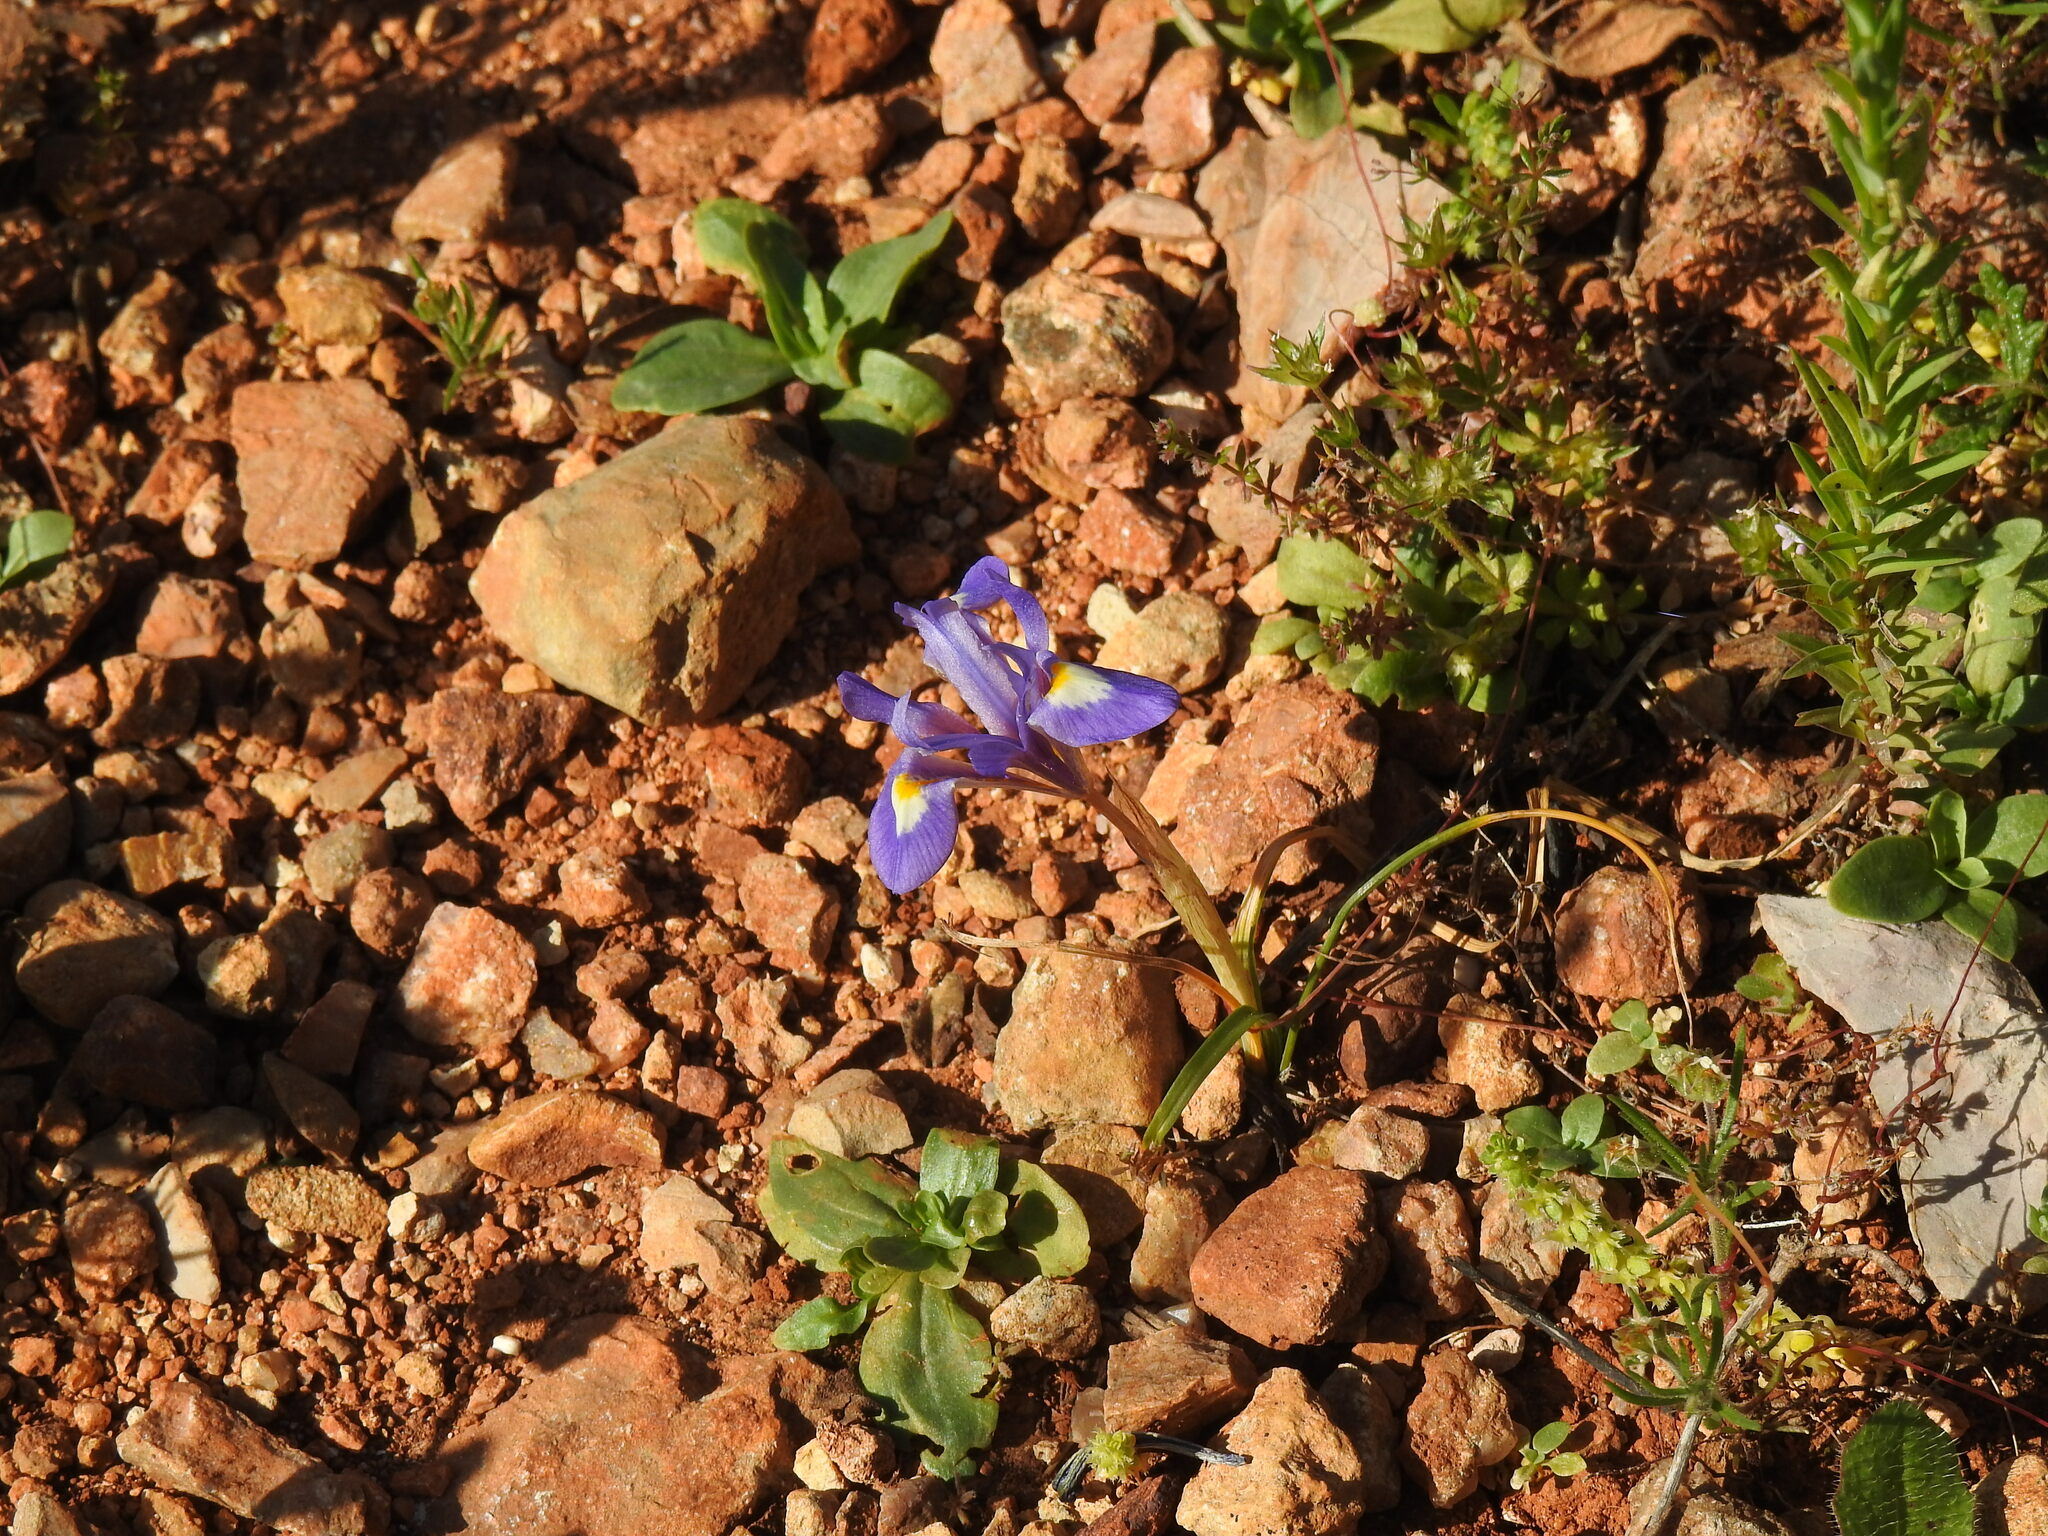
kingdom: Plantae
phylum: Tracheophyta
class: Liliopsida
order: Asparagales
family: Iridaceae
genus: Moraea
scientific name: Moraea sisyrinchium
